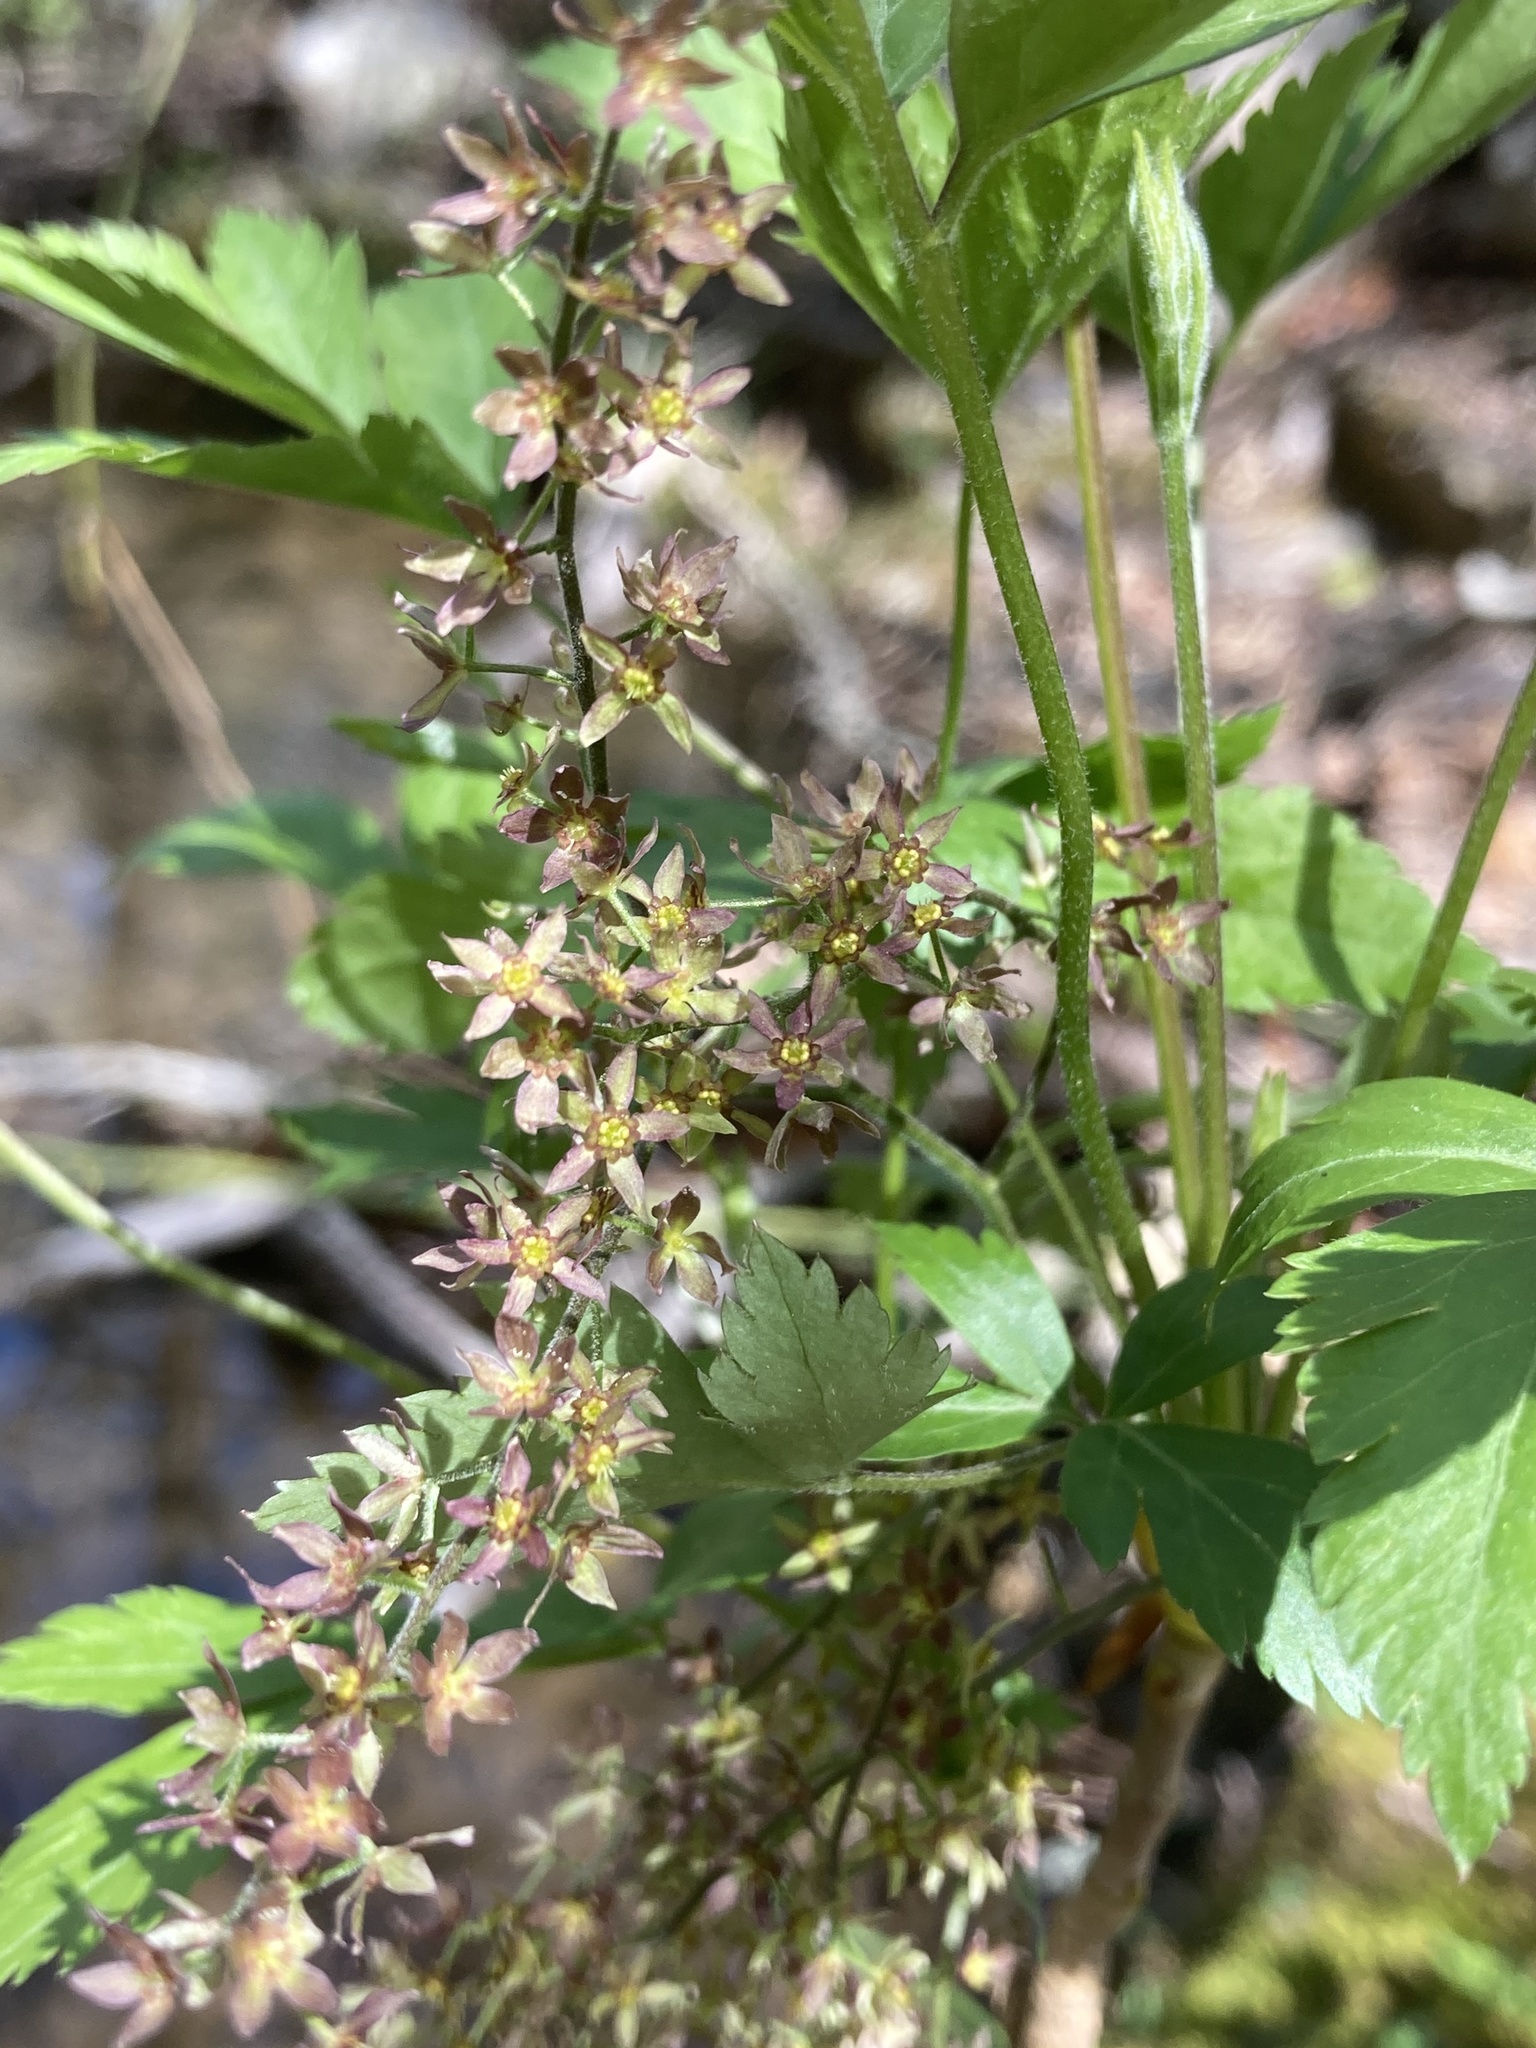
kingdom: Plantae
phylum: Tracheophyta
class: Magnoliopsida
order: Ranunculales
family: Ranunculaceae
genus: Xanthorhiza
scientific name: Xanthorhiza simplicissima
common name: Yellowroot
